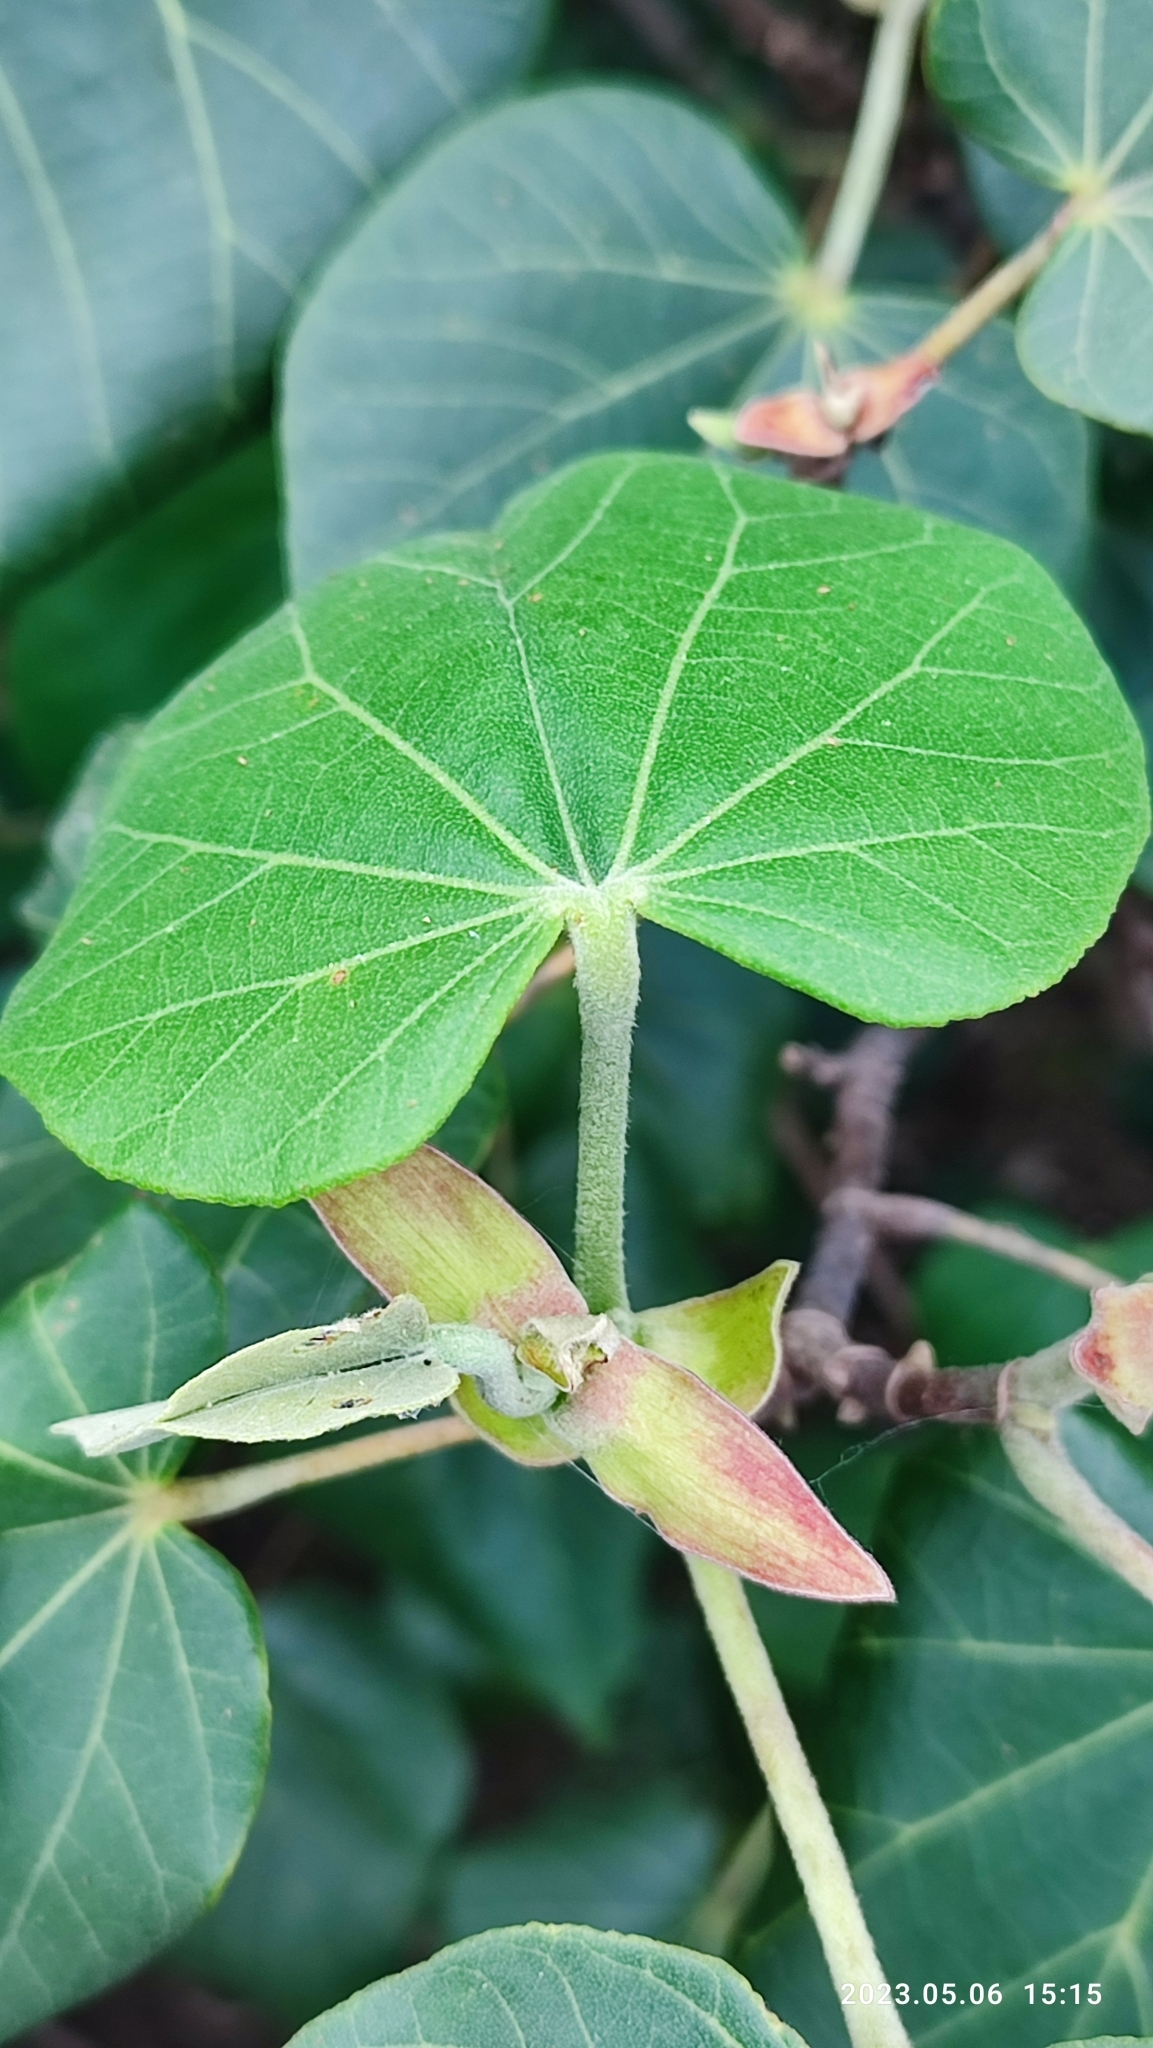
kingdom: Plantae
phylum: Tracheophyta
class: Magnoliopsida
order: Malvales
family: Malvaceae
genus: Talipariti
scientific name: Talipariti tiliaceum
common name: Sea hibiscus
